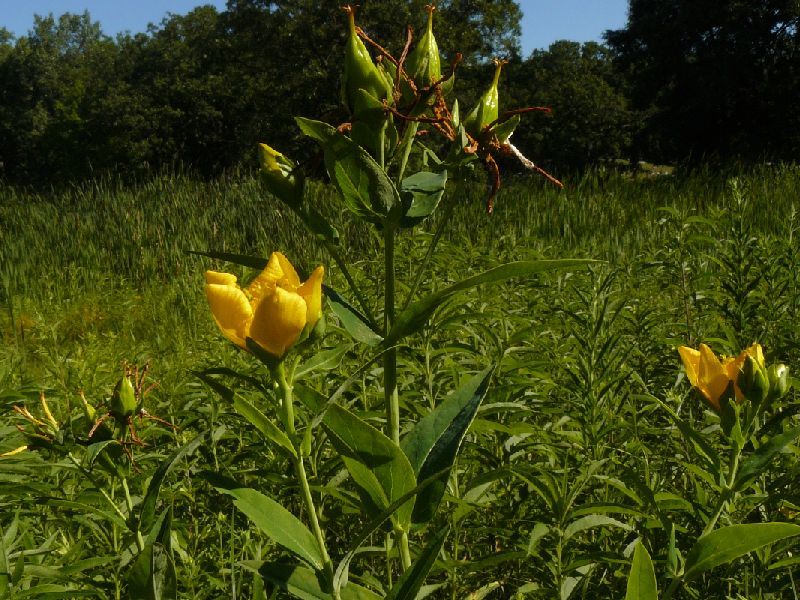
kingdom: Plantae
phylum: Tracheophyta
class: Magnoliopsida
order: Malpighiales
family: Hypericaceae
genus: Hypericum
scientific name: Hypericum ascyron
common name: Giant st. john's-wort
